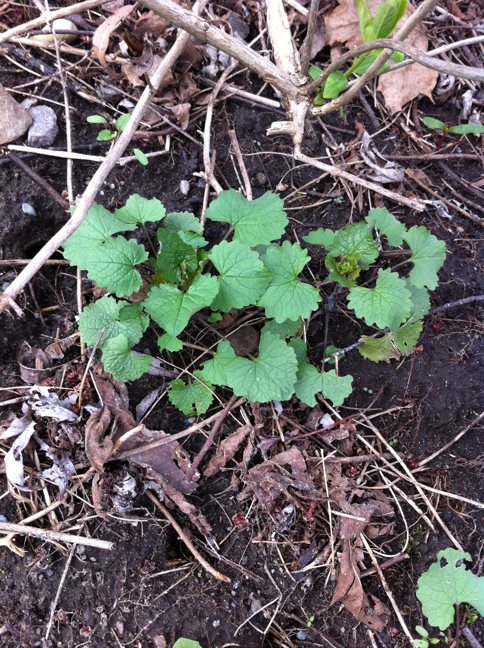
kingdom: Plantae
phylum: Tracheophyta
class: Magnoliopsida
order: Brassicales
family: Brassicaceae
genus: Alliaria
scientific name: Alliaria petiolata
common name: Garlic mustard
